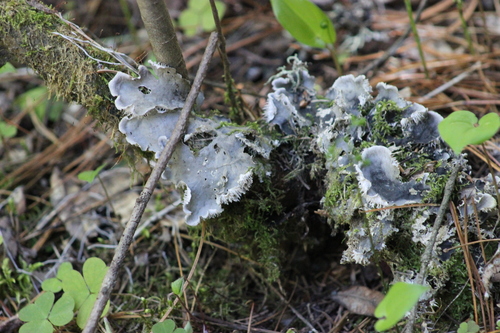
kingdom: Fungi
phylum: Ascomycota
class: Lecanoromycetes
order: Peltigerales
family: Peltigeraceae
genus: Peltigera
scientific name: Peltigera canina
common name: Dog pelt lichen
